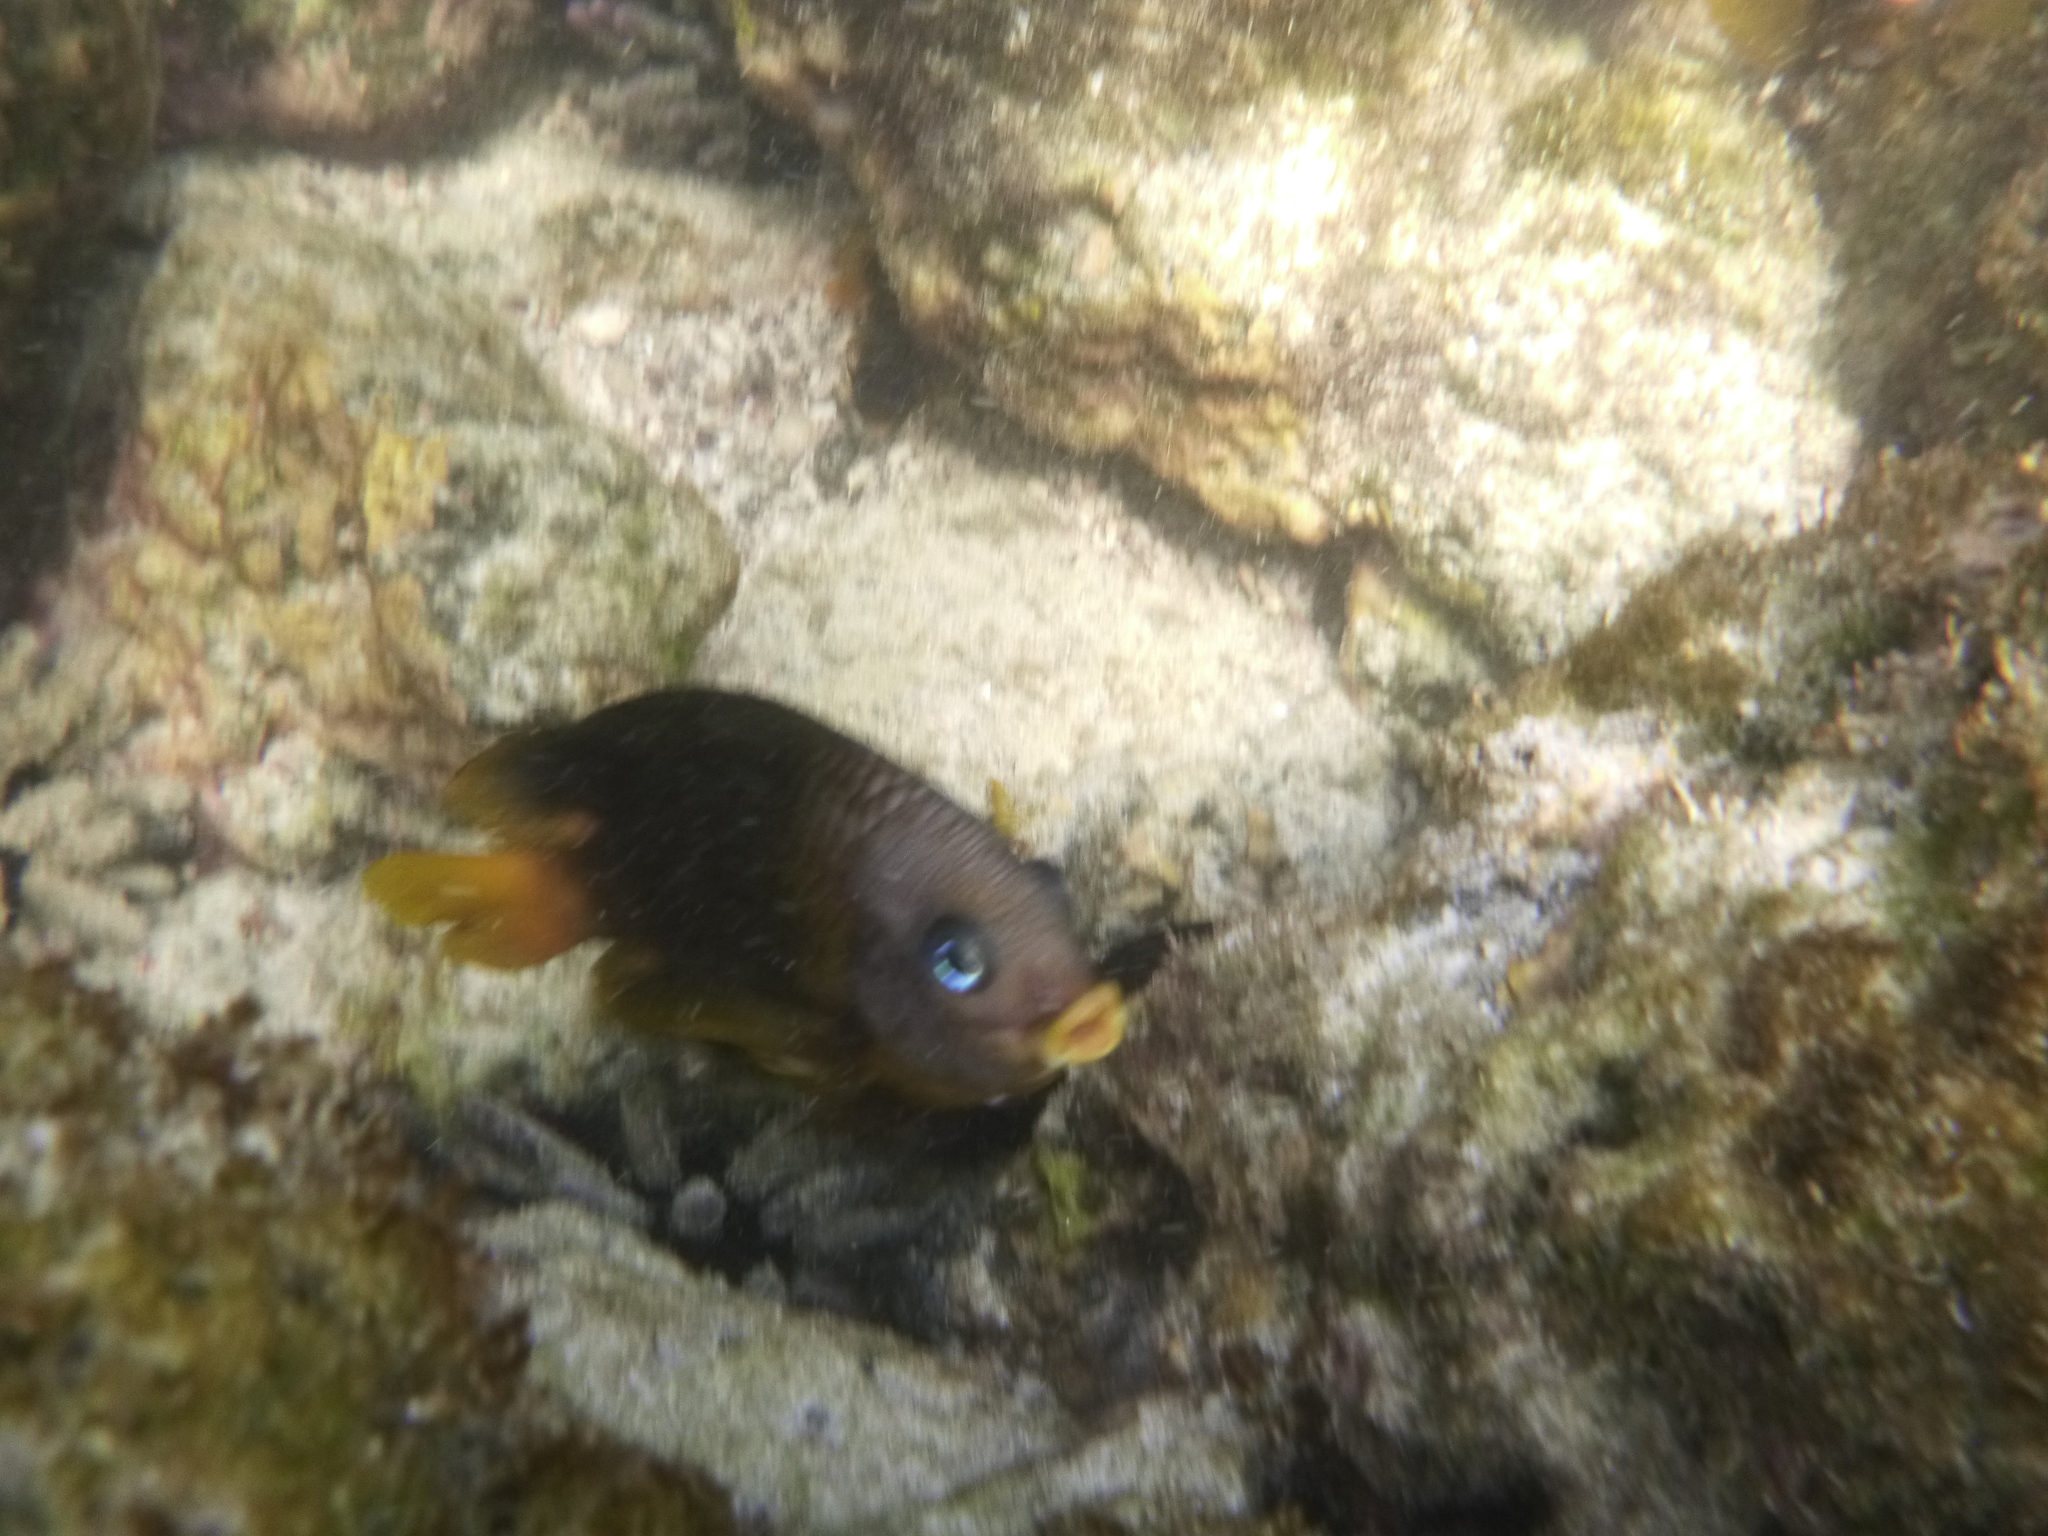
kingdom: Animalia
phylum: Chordata
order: Perciformes
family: Pomacentridae
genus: Stegastes
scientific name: Stegastes arcifrons
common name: Galapagos gregory
